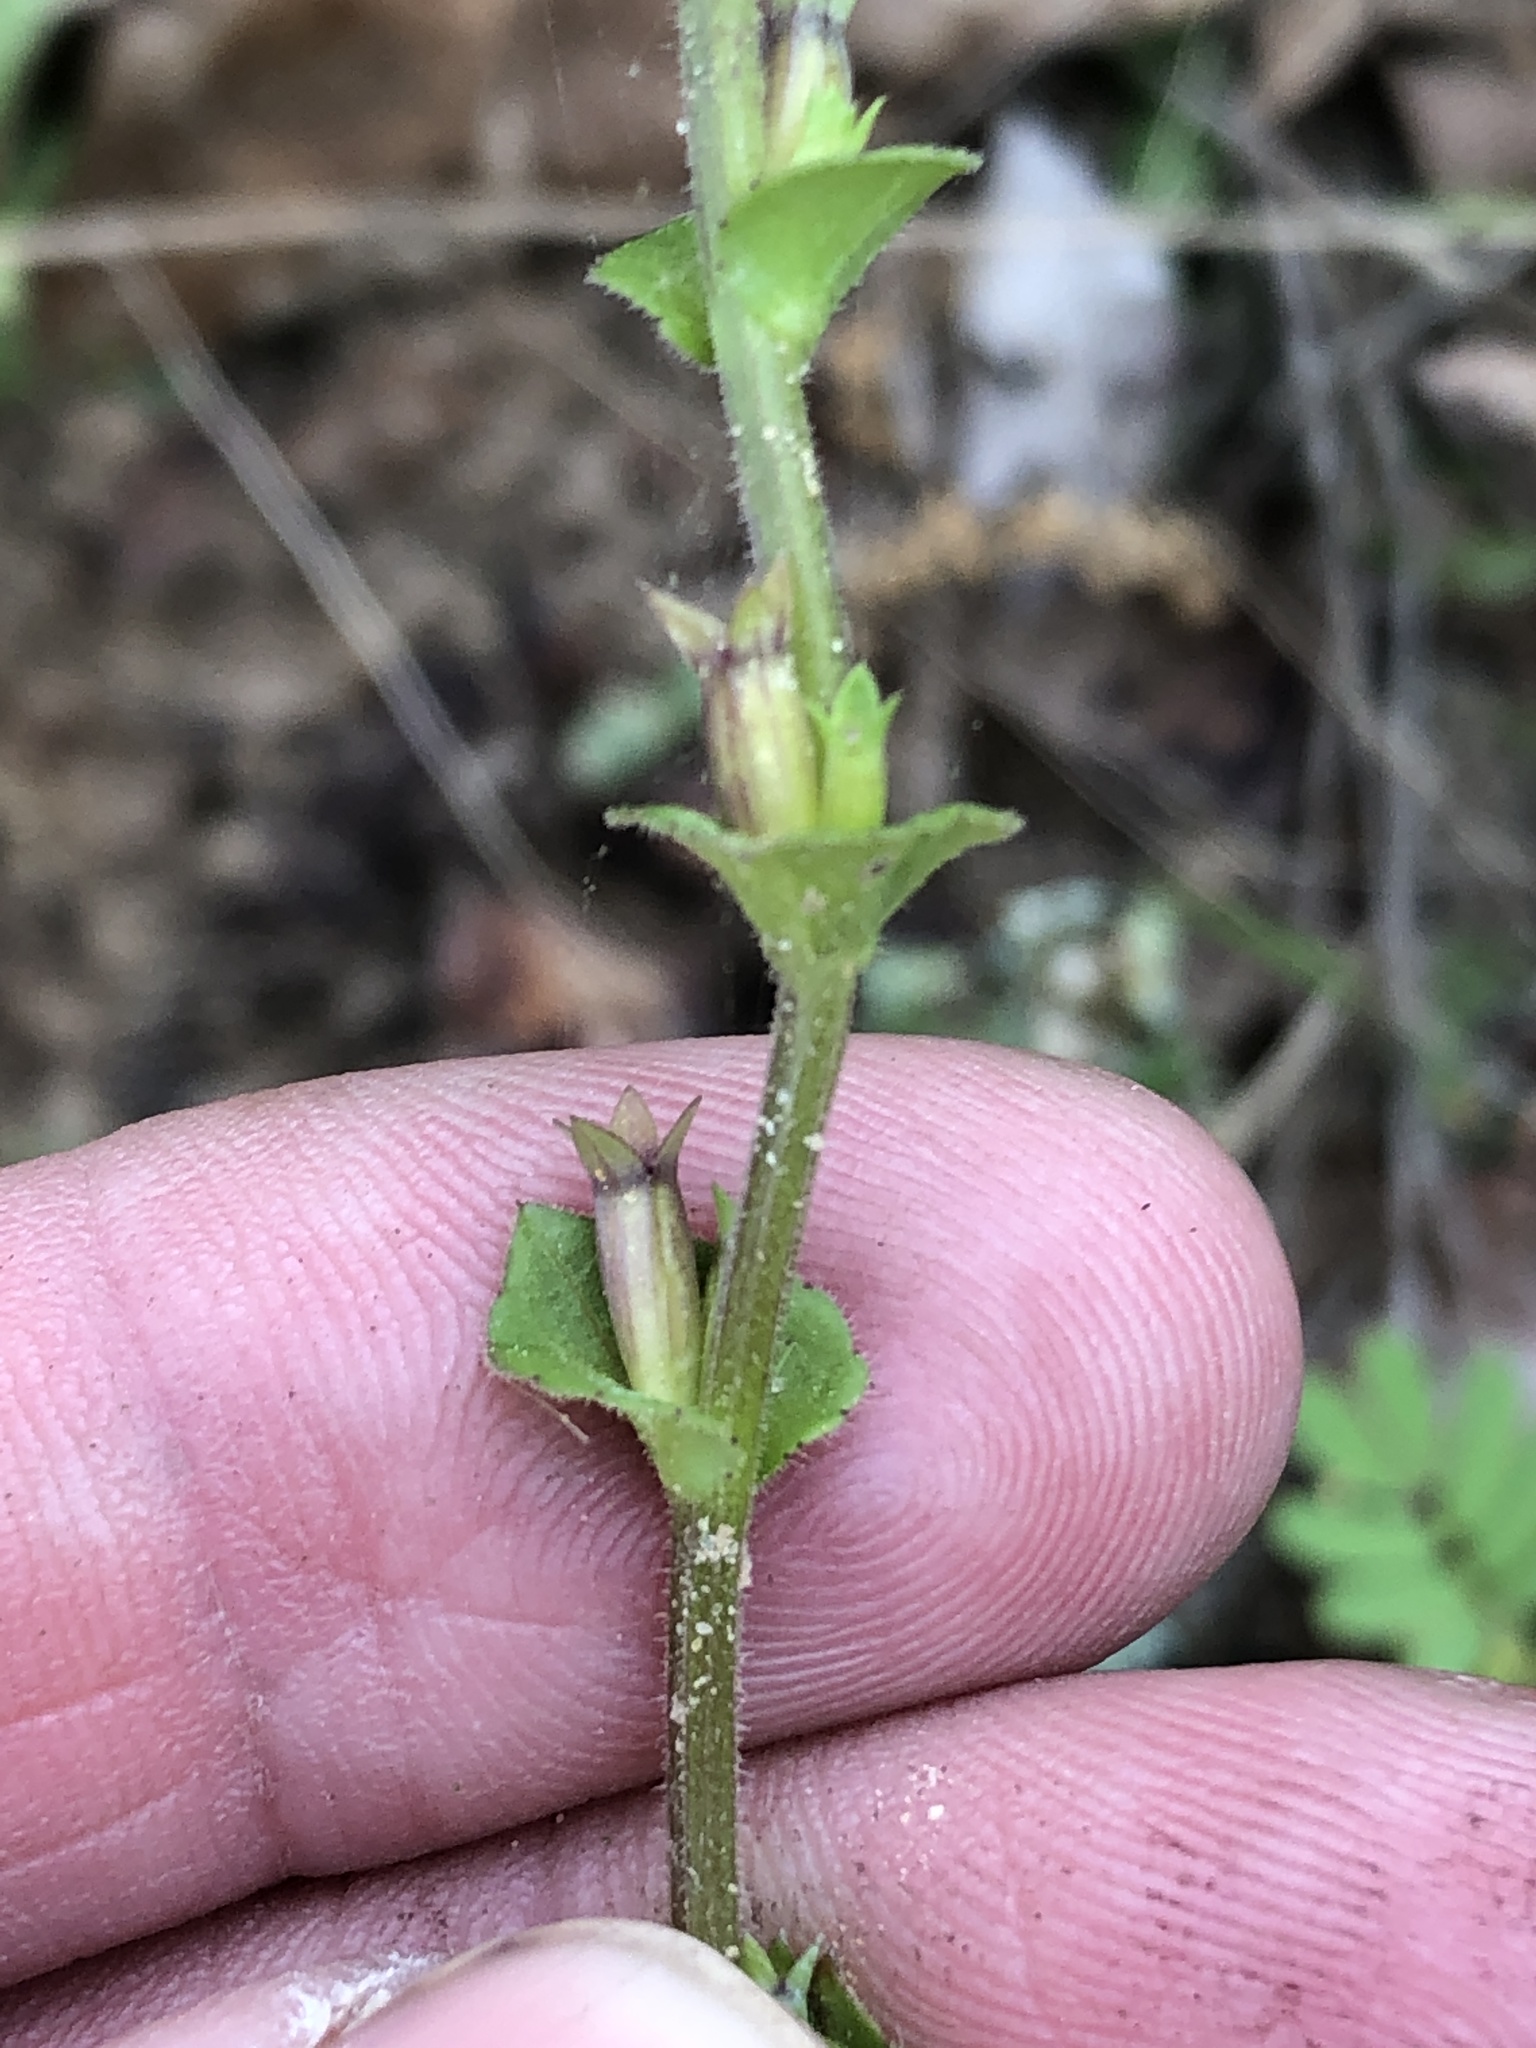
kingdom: Plantae
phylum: Tracheophyta
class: Magnoliopsida
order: Asterales
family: Campanulaceae
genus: Triodanis
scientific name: Triodanis perfoliata
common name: Clasping venus' looking-glass
